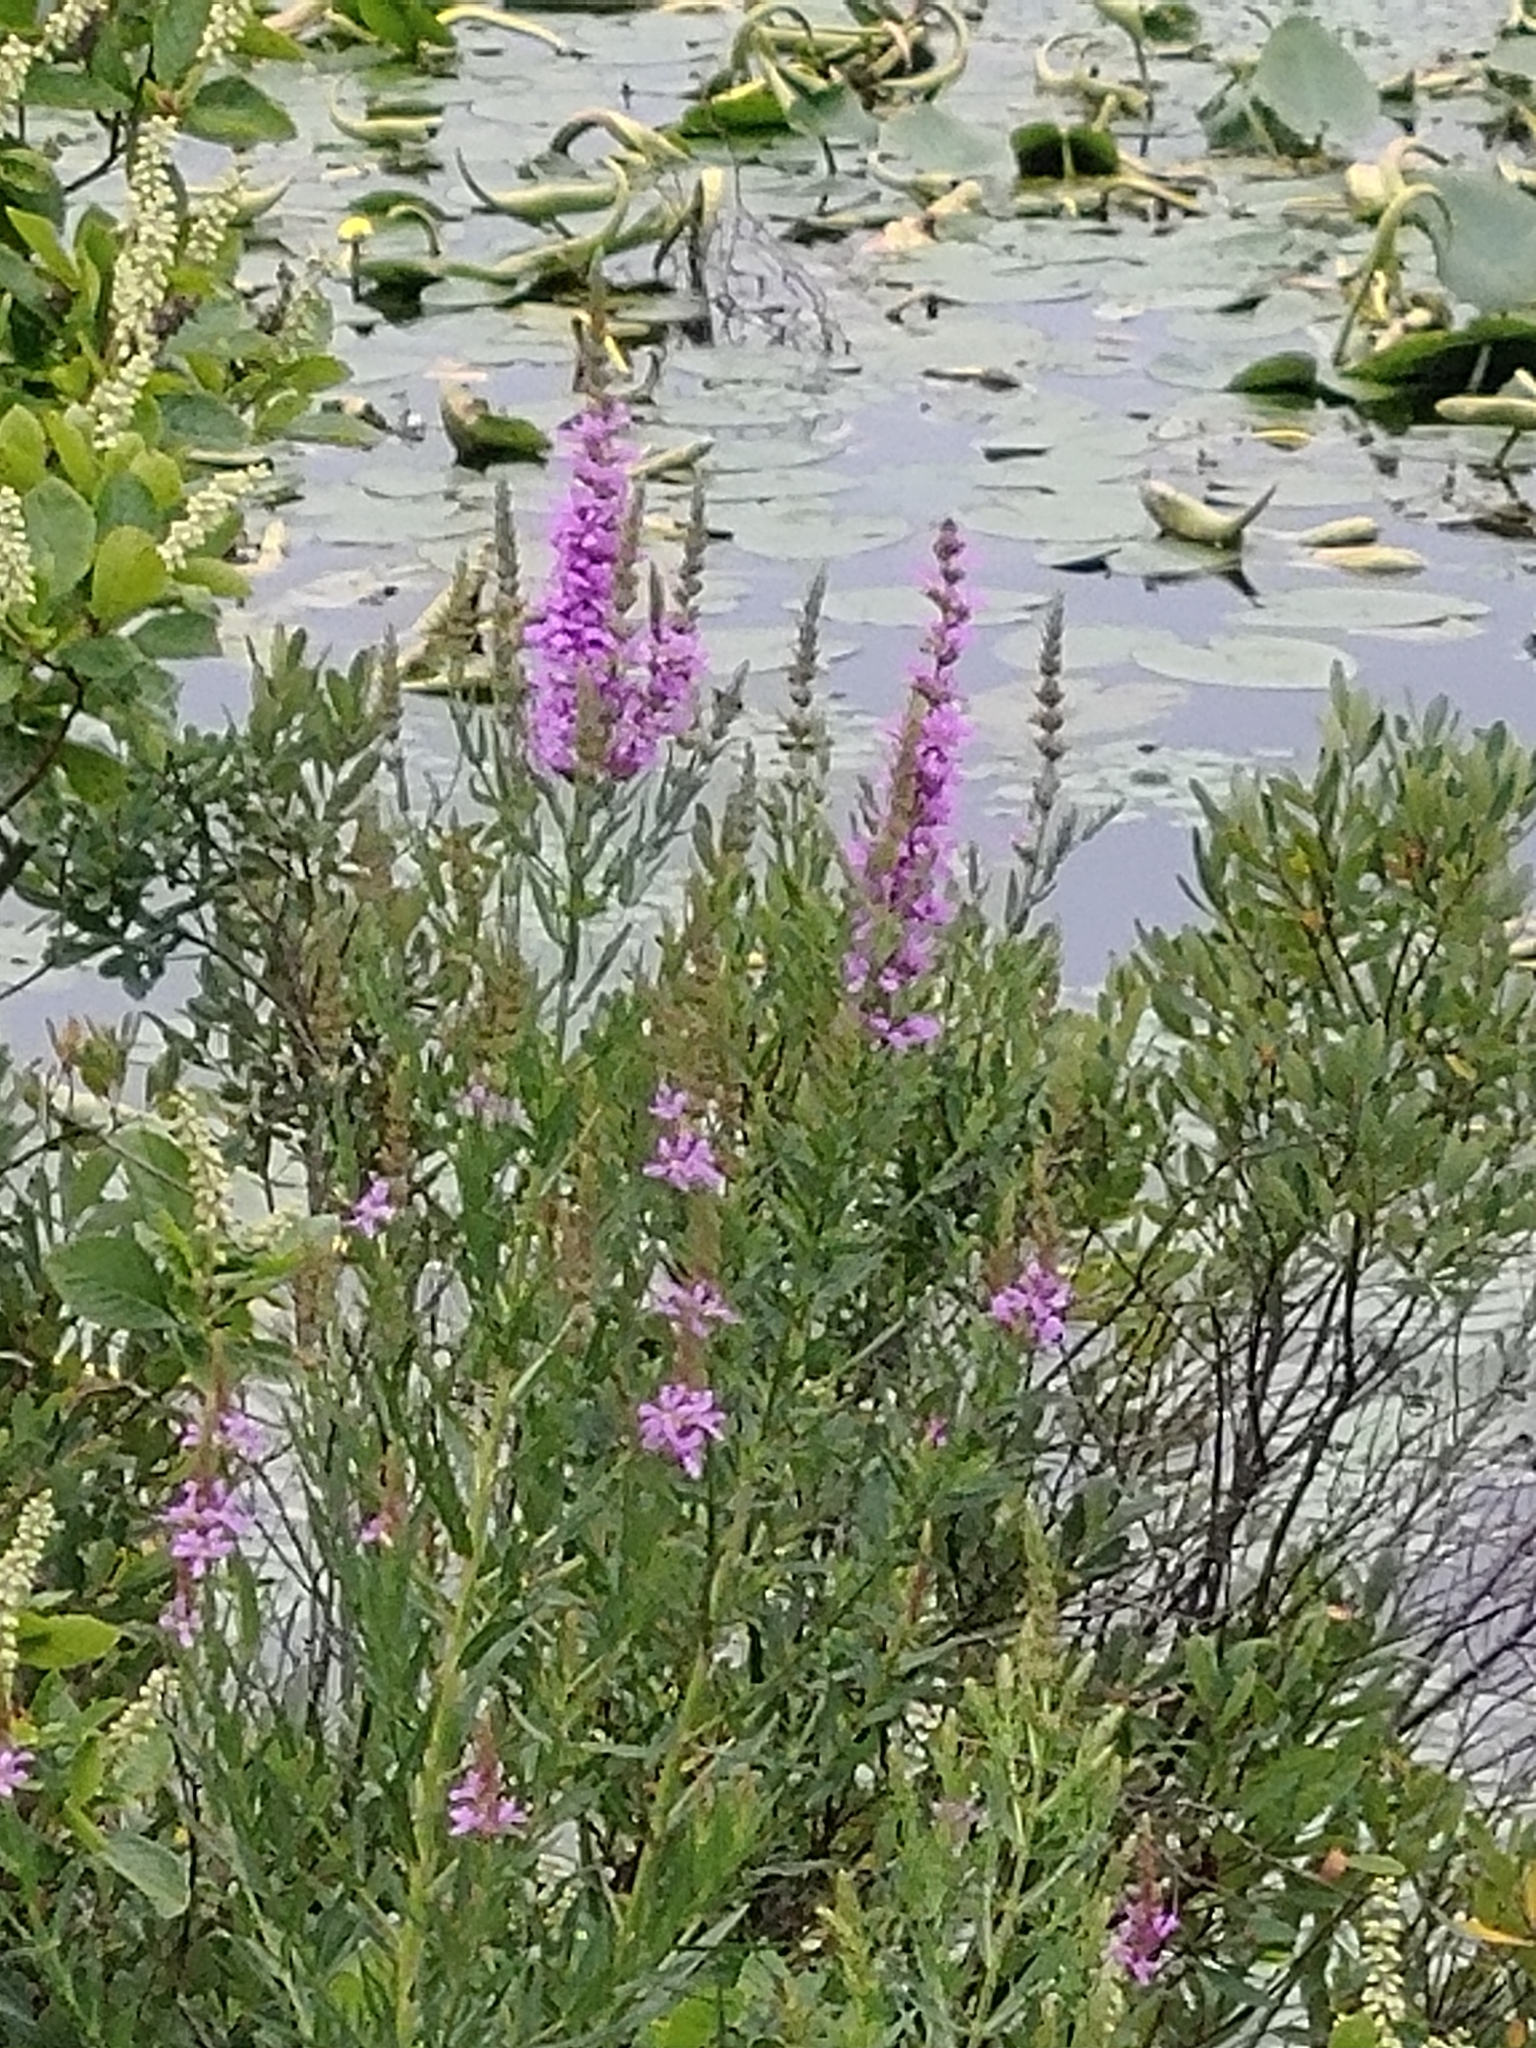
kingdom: Plantae
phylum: Tracheophyta
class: Magnoliopsida
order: Myrtales
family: Lythraceae
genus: Lythrum
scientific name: Lythrum salicaria
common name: Purple loosestrife
